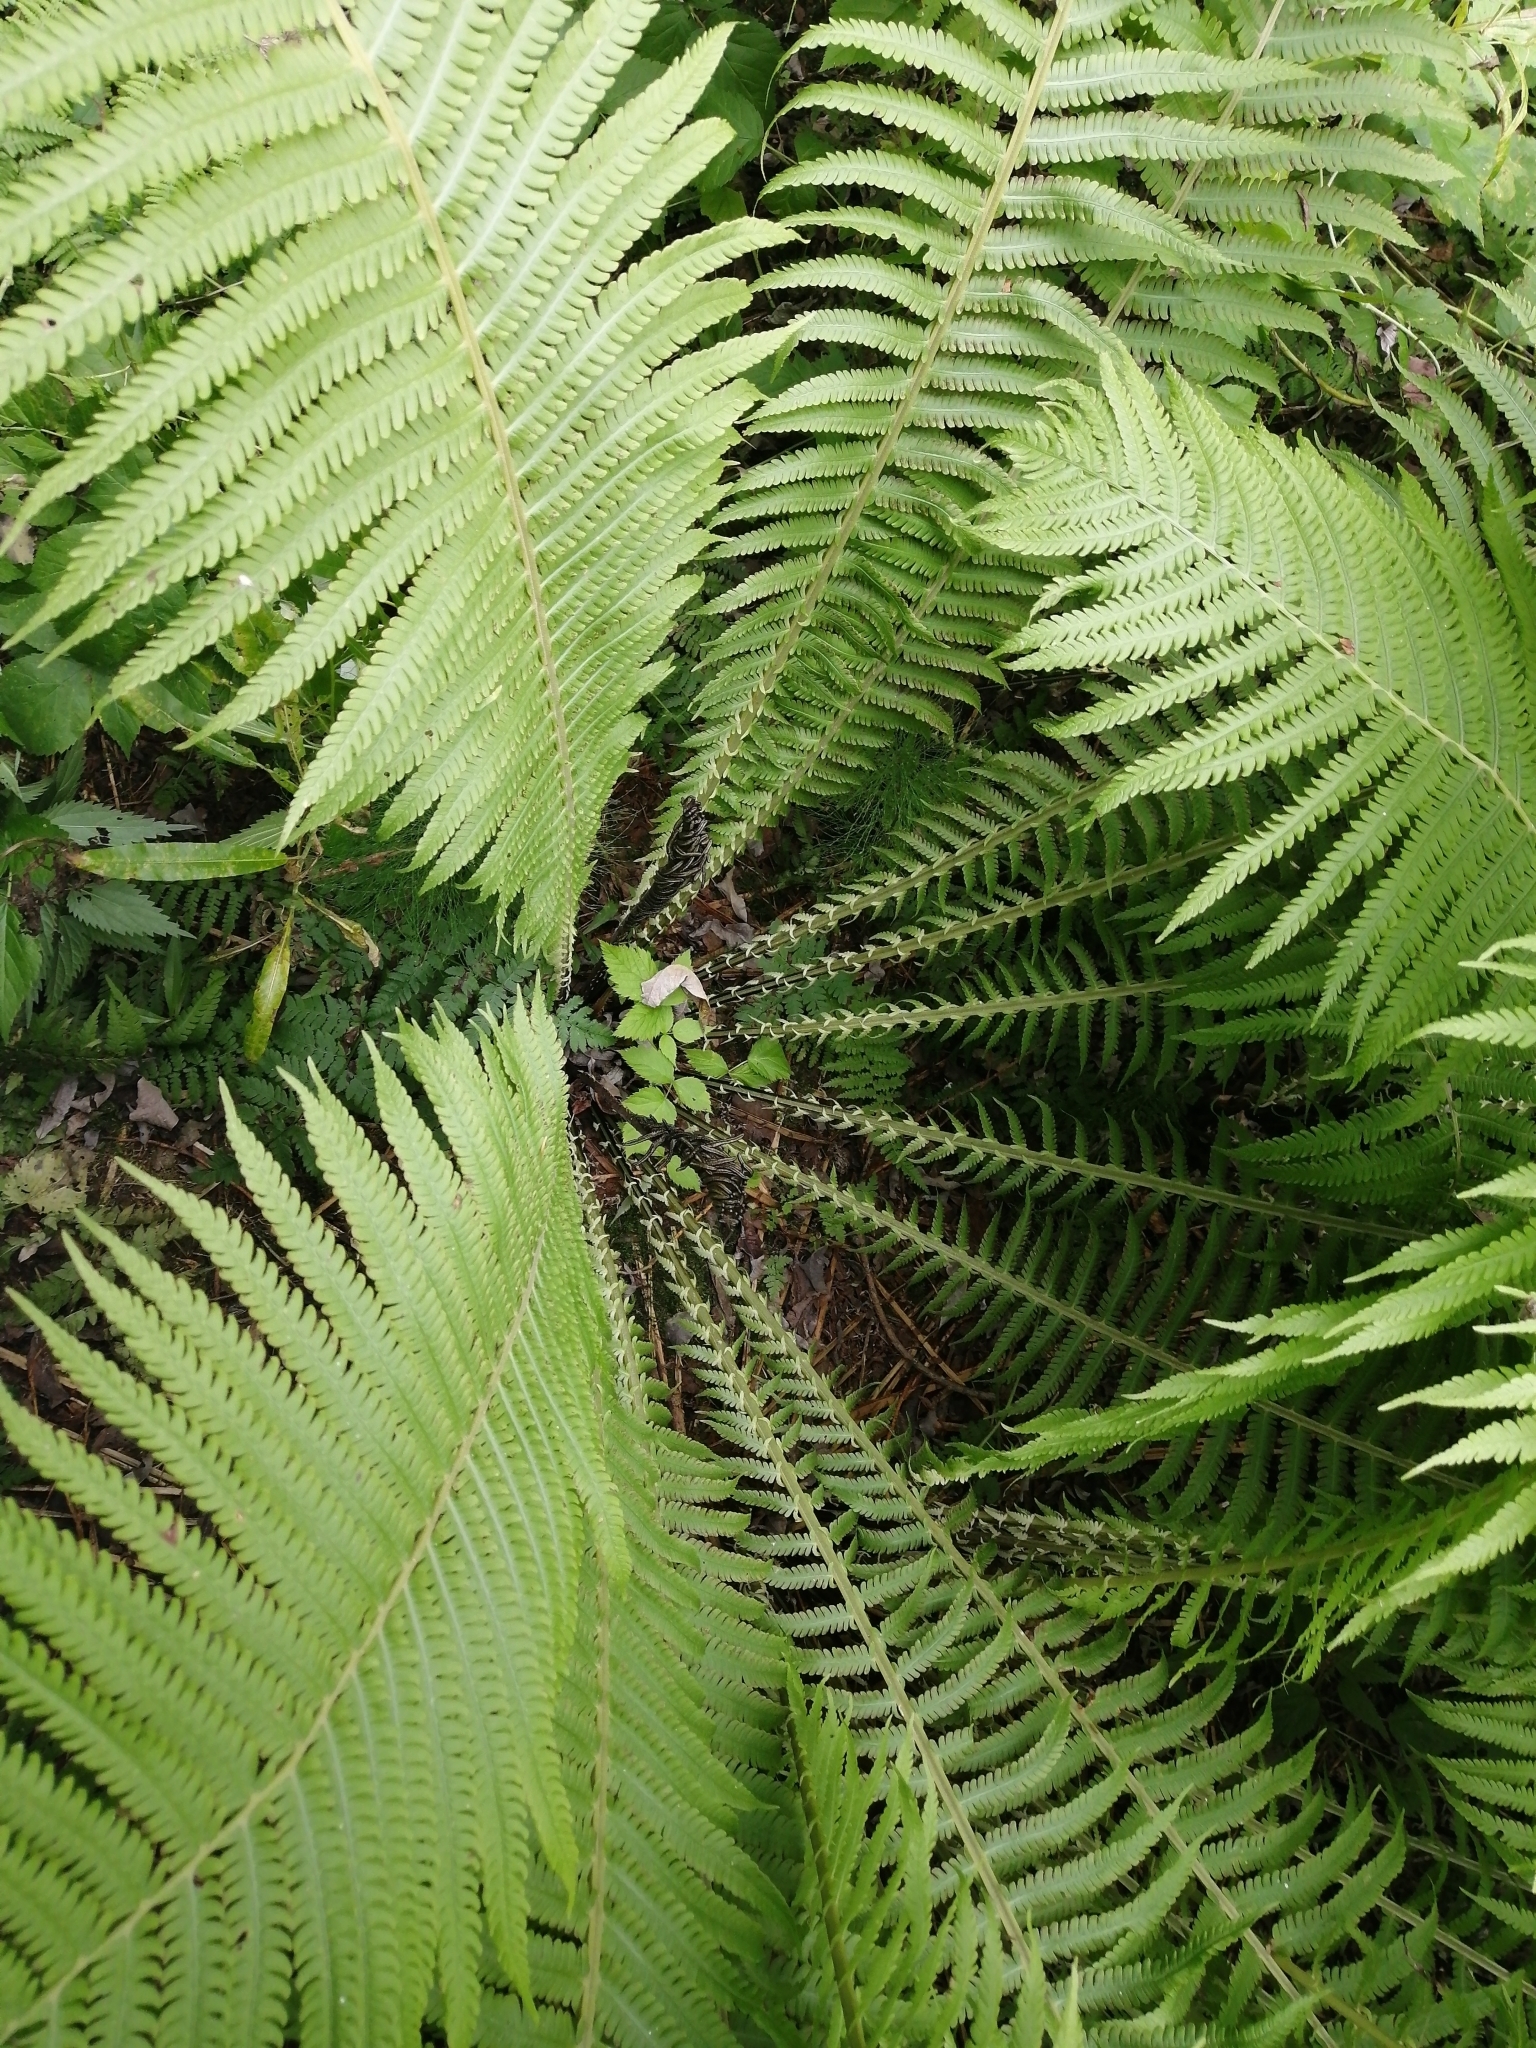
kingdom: Plantae
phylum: Tracheophyta
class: Polypodiopsida
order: Polypodiales
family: Onocleaceae
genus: Matteuccia
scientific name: Matteuccia struthiopteris
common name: Ostrich fern
